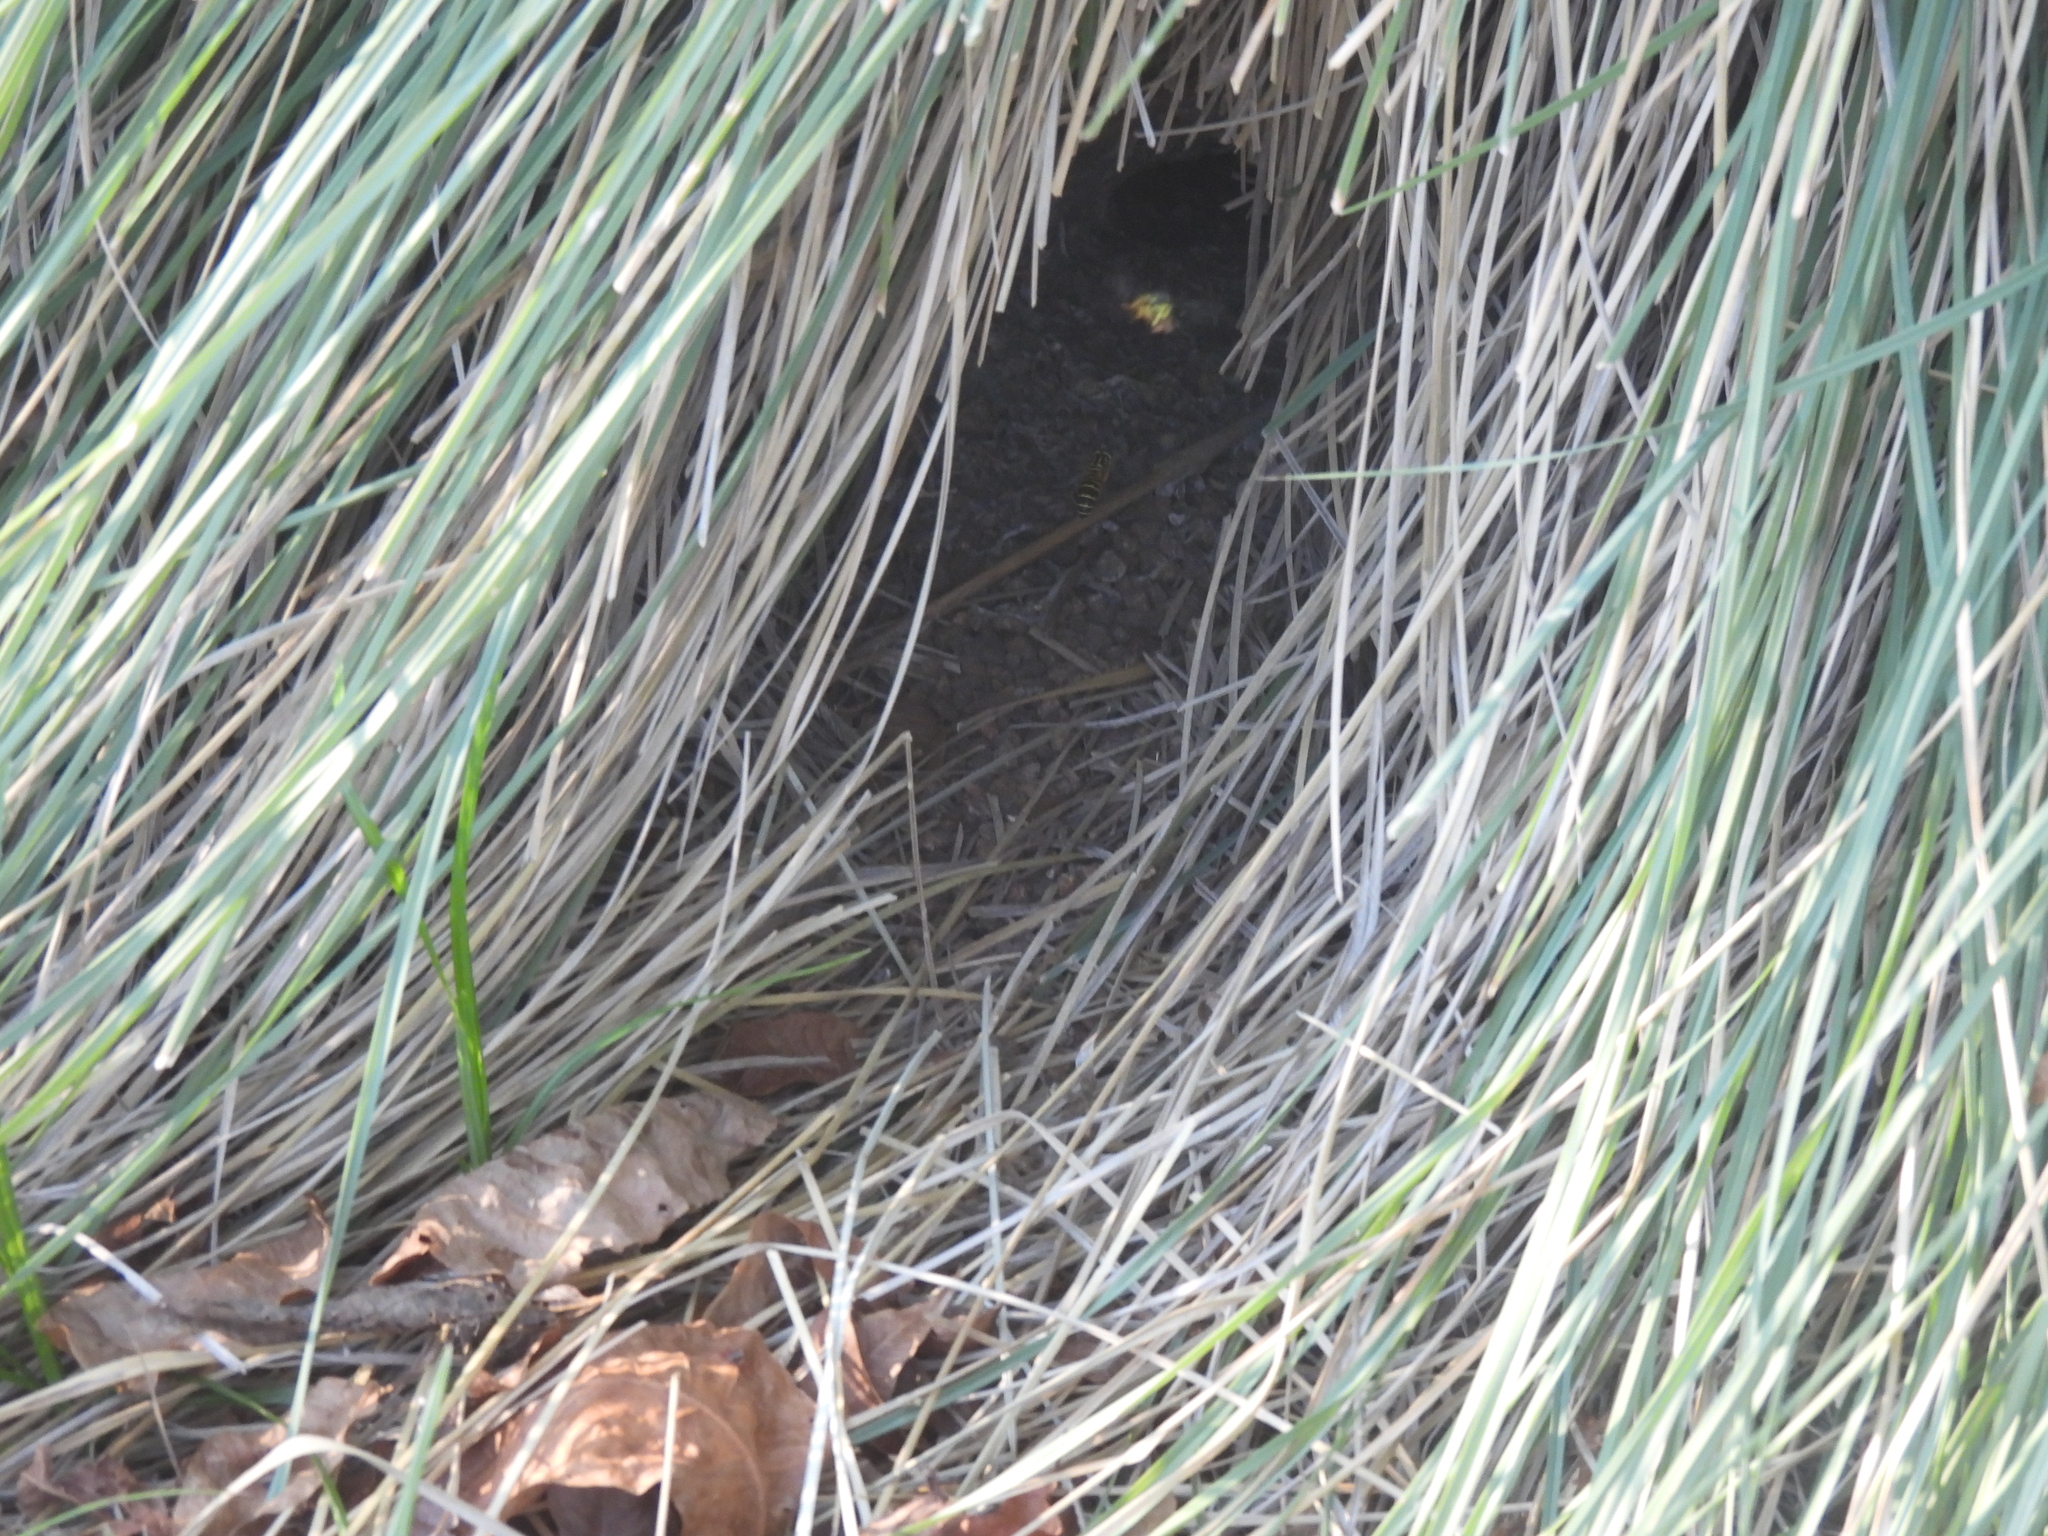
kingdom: Animalia
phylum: Arthropoda
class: Insecta
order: Hymenoptera
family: Vespidae
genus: Vespula
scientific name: Vespula squamosa
